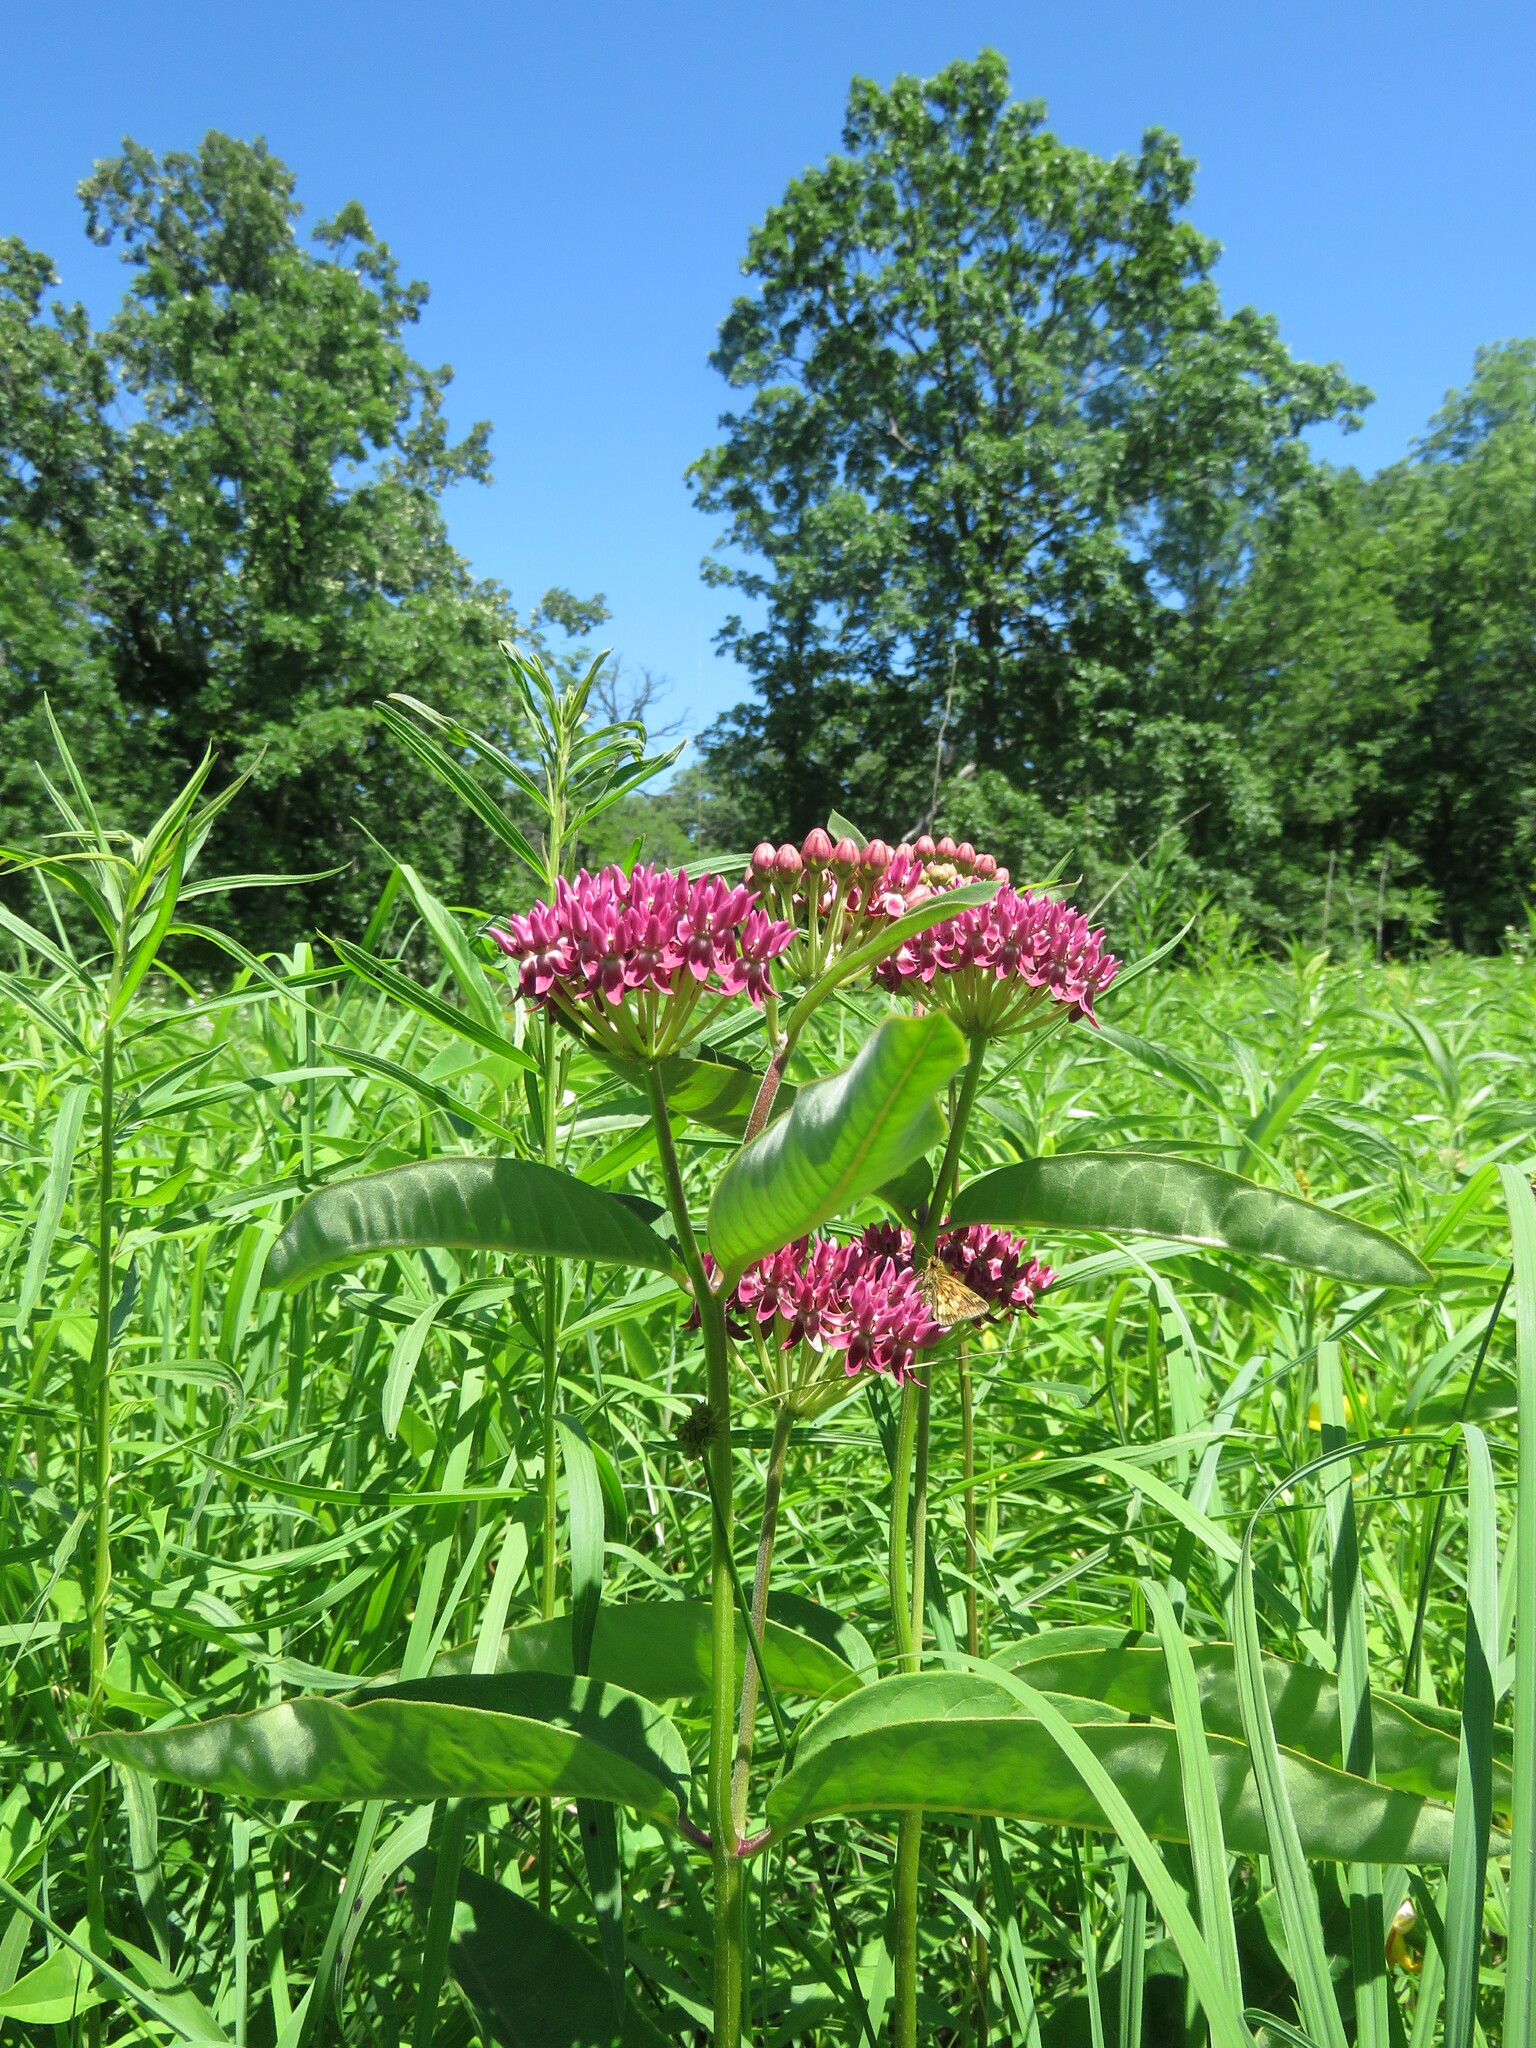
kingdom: Plantae
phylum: Tracheophyta
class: Magnoliopsida
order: Gentianales
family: Apocynaceae
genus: Asclepias
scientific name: Asclepias purpurascens
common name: Purple milkweed
